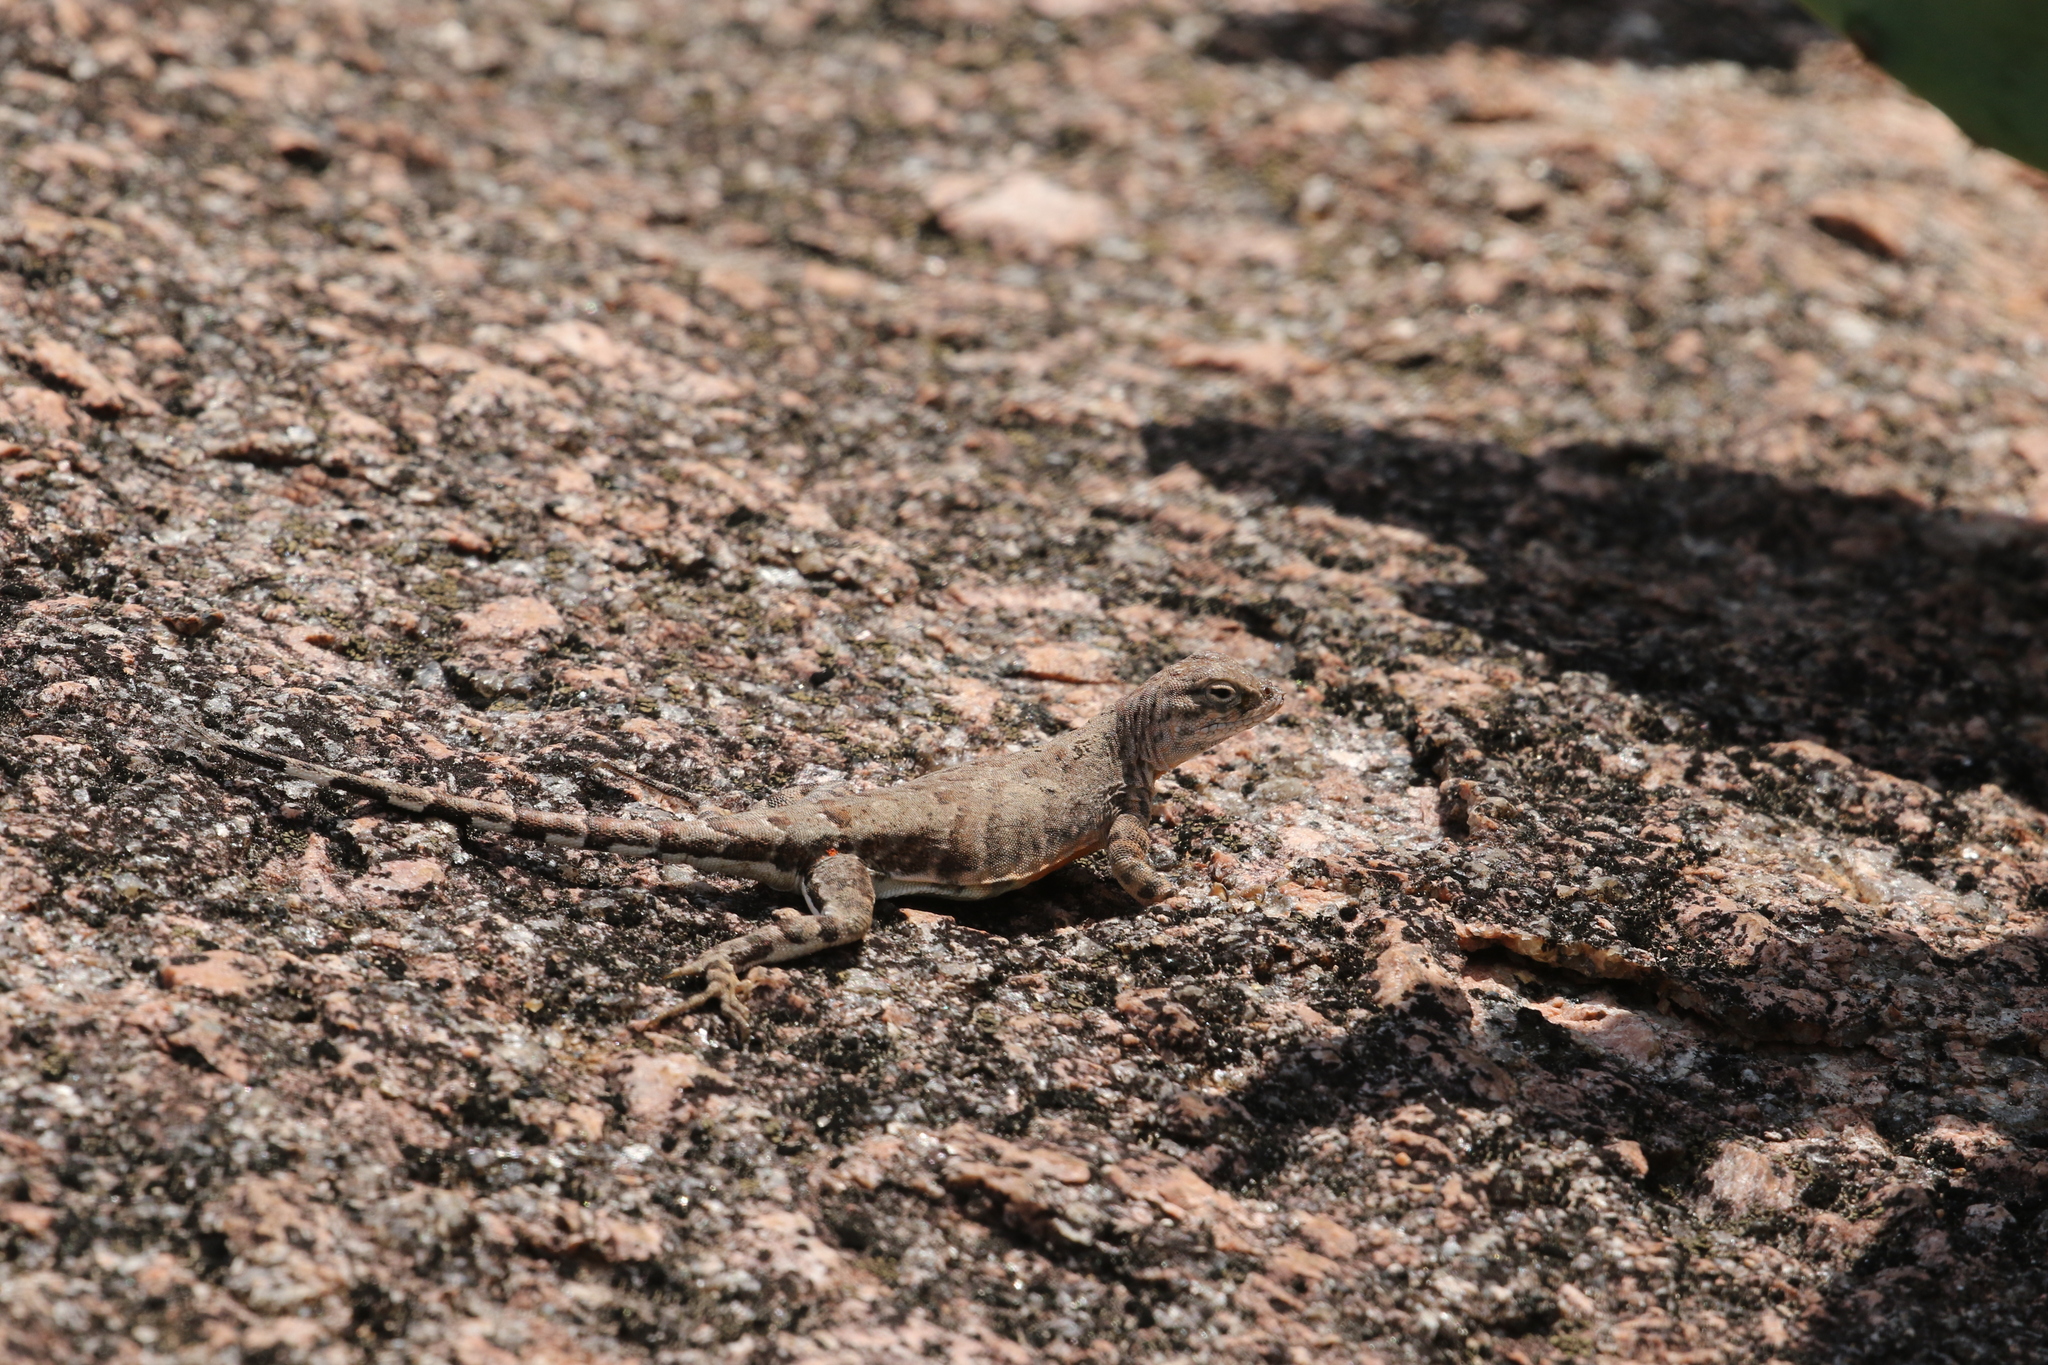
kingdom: Animalia
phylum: Chordata
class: Squamata
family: Phrynosomatidae
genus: Cophosaurus
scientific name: Cophosaurus texanus
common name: Greater earless lizard
